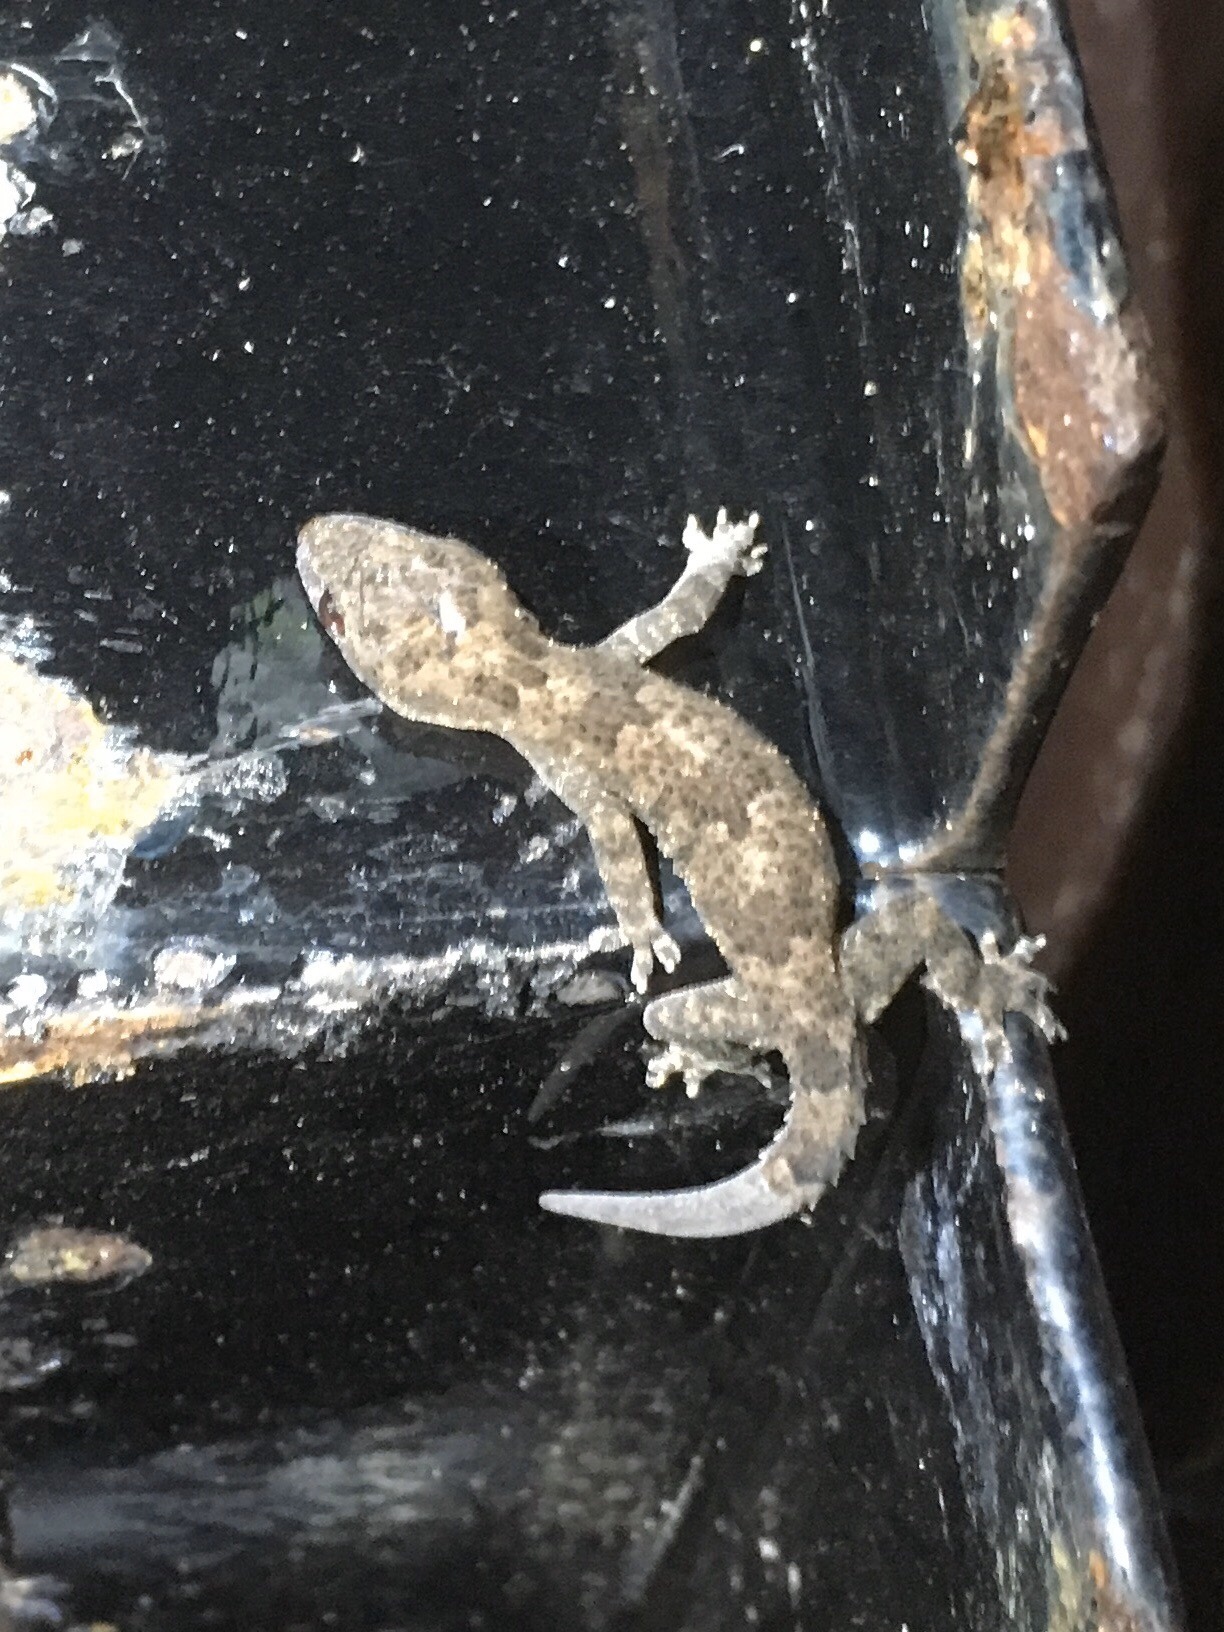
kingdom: Animalia
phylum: Chordata
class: Squamata
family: Gekkonidae
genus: Hemidactylus
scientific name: Hemidactylus mabouia
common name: House gecko
